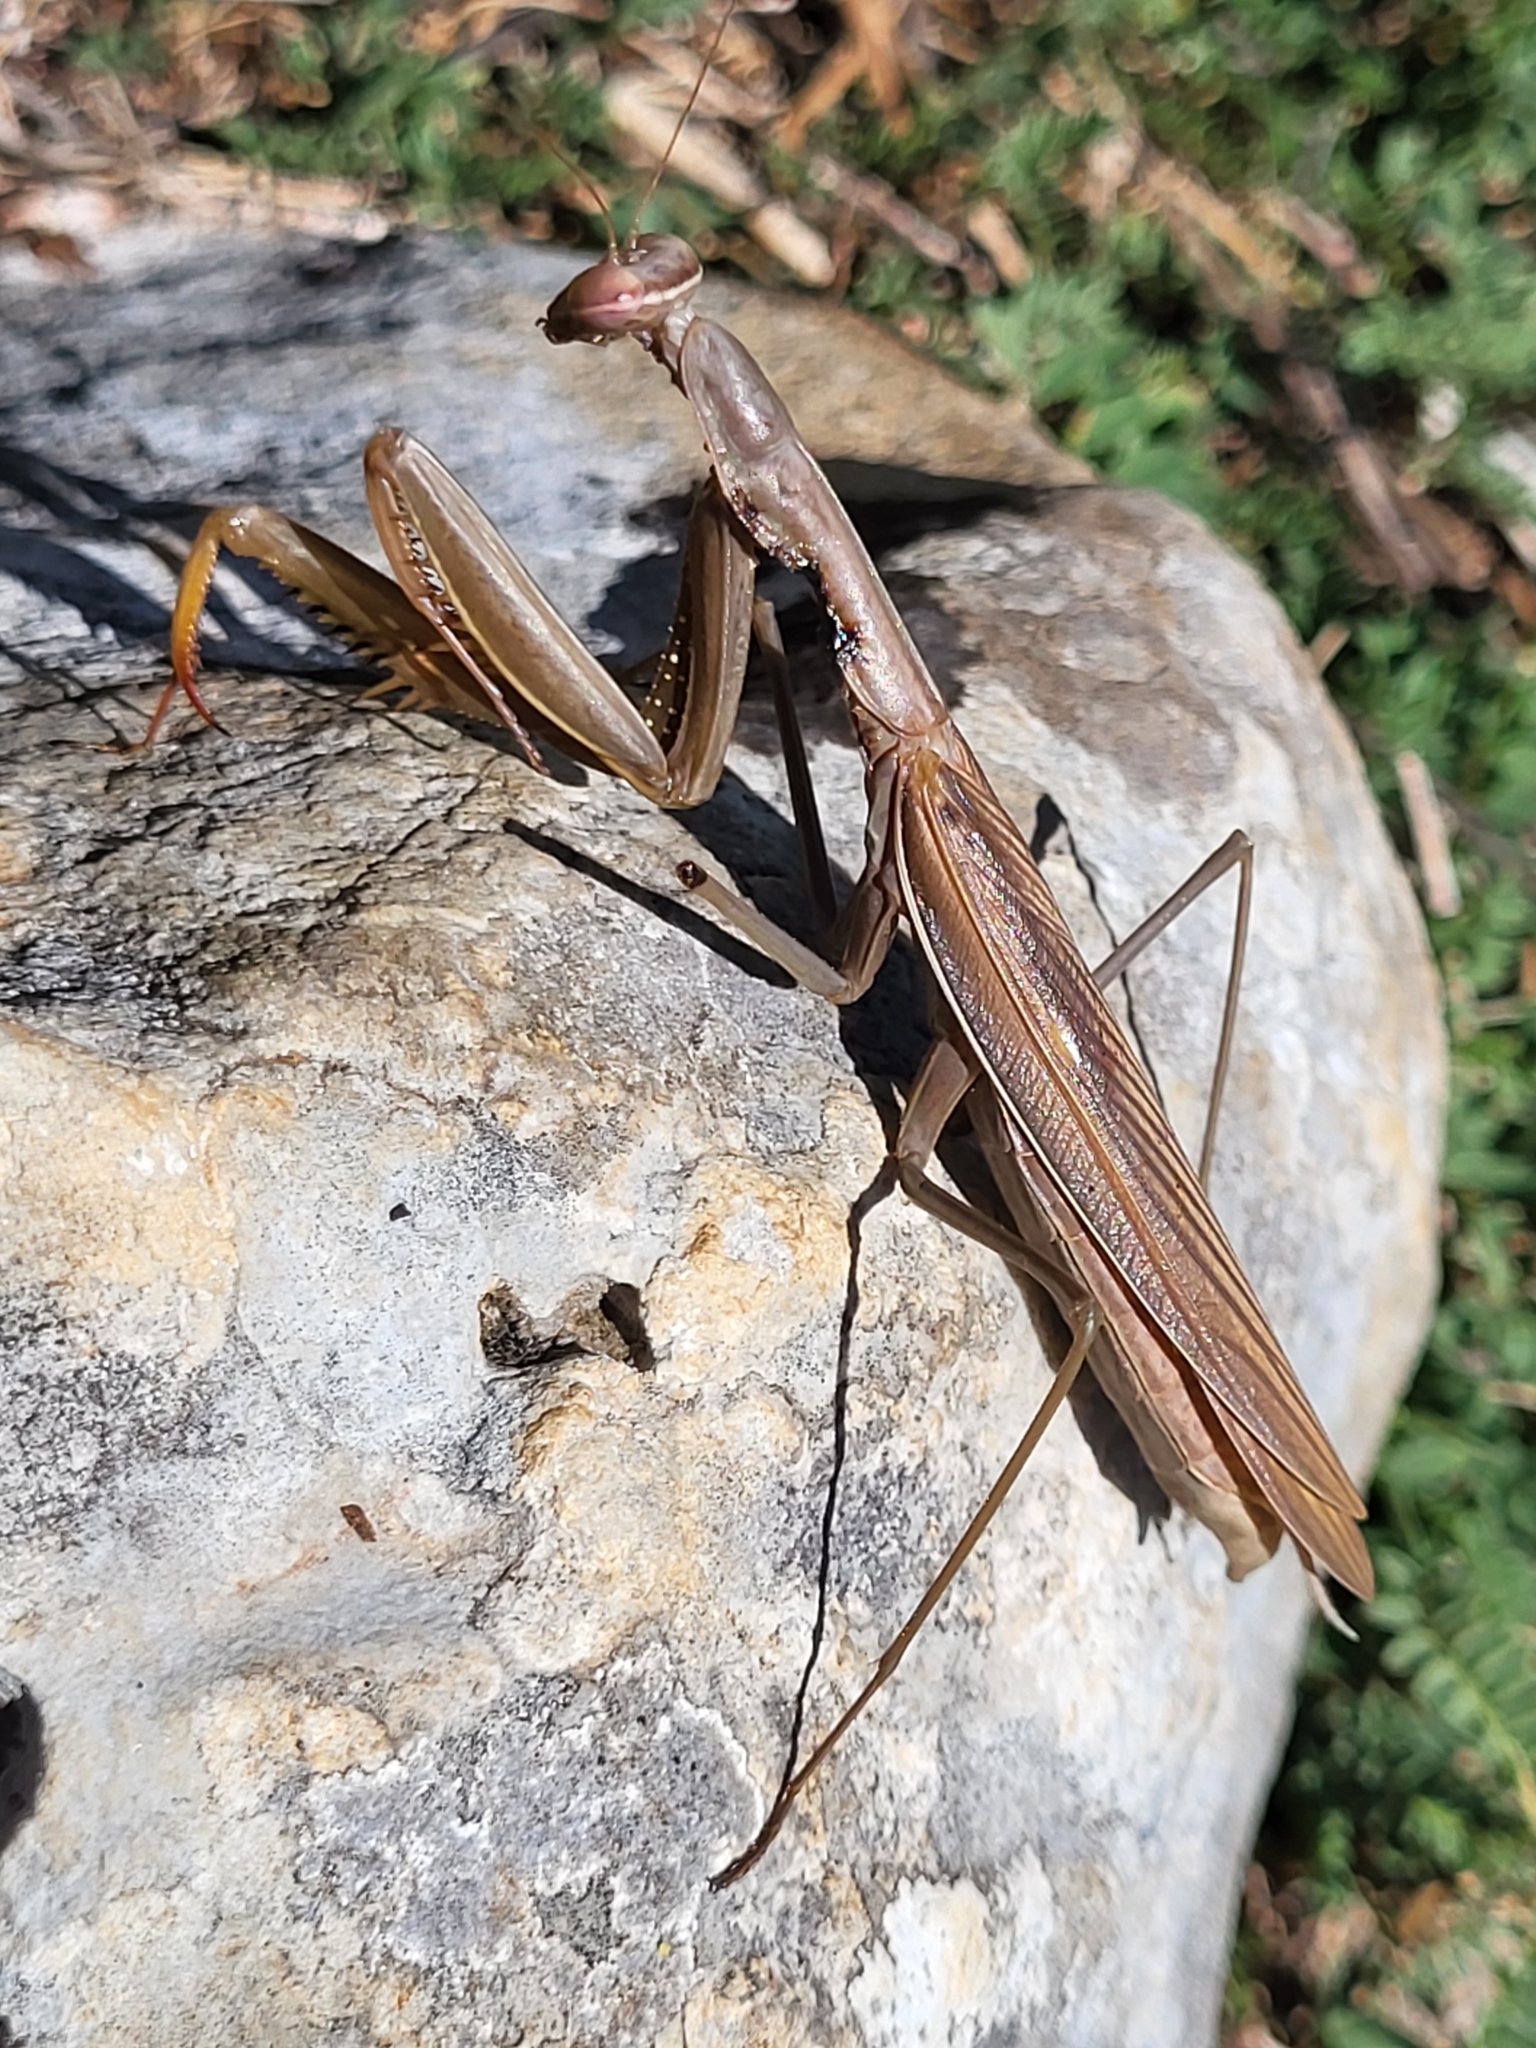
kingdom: Animalia
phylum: Arthropoda
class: Insecta
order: Mantodea
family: Mantidae
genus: Mantis
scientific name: Mantis religiosa
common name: Praying mantis
